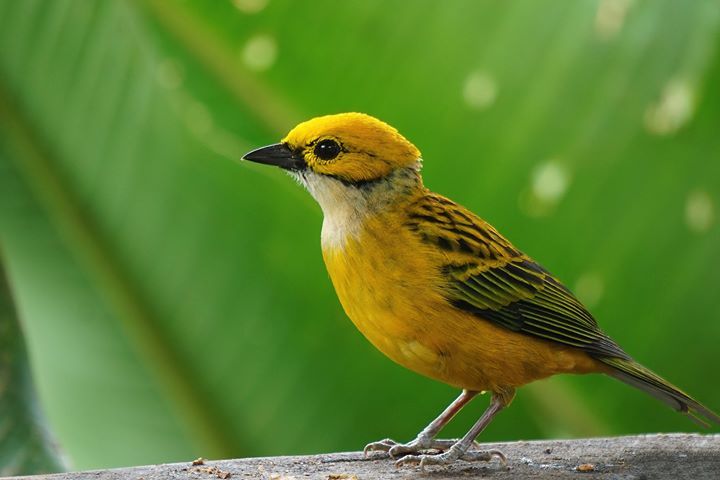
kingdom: Animalia
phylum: Chordata
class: Aves
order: Passeriformes
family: Thraupidae
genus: Tangara
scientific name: Tangara icterocephala
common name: Silver-throated tanager
